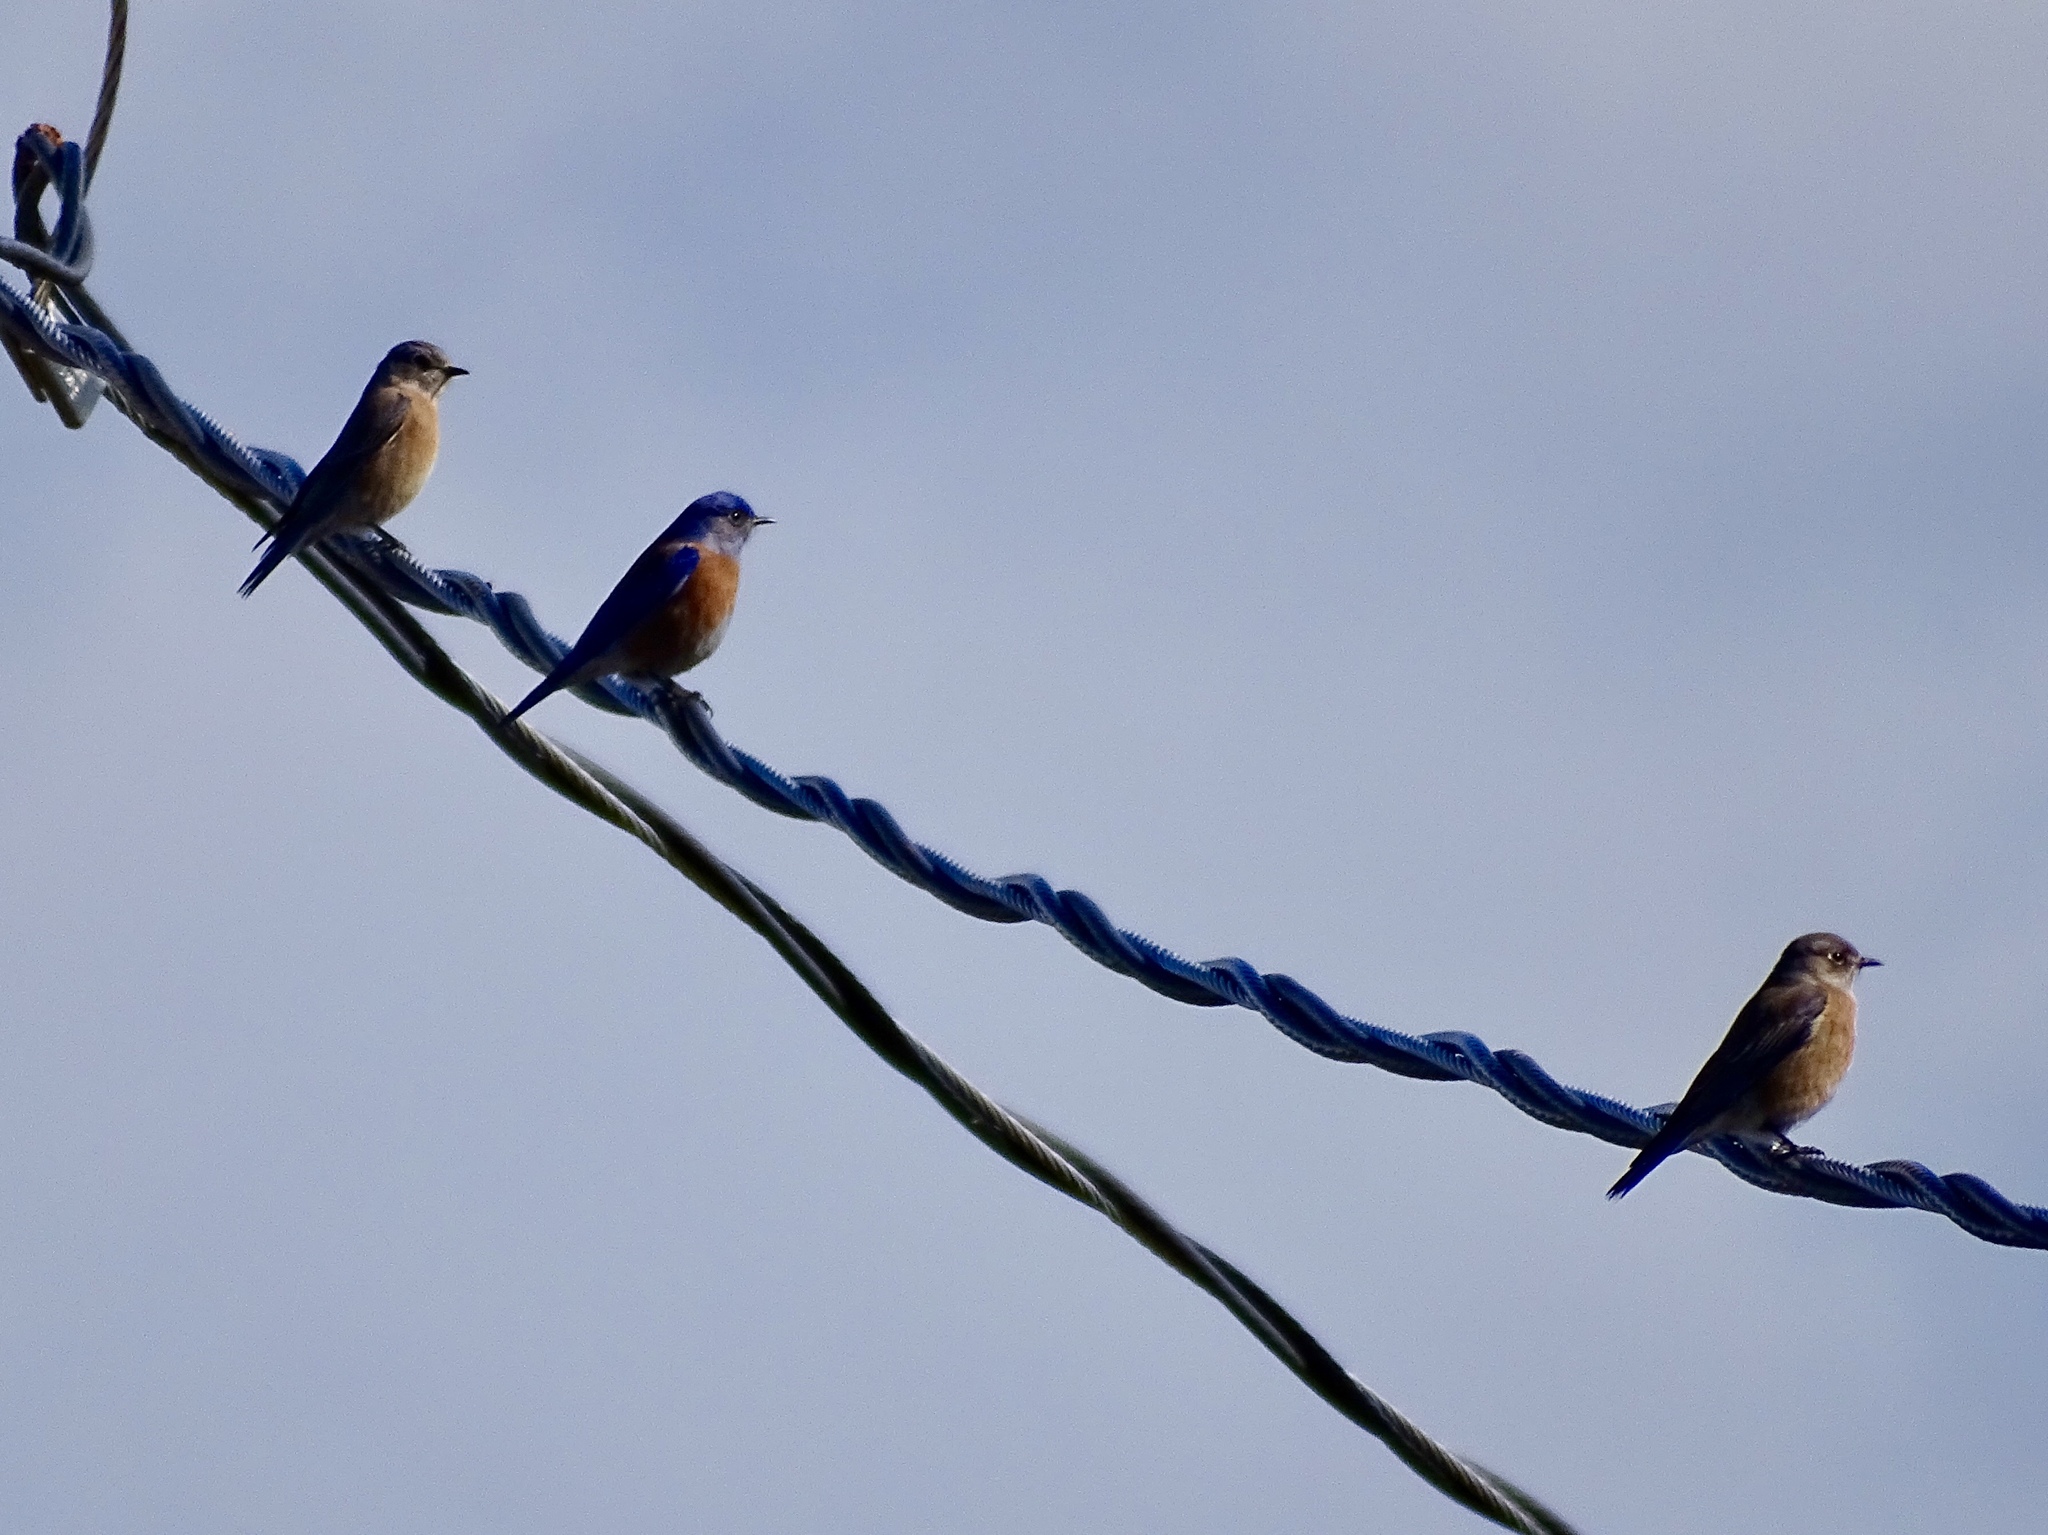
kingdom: Animalia
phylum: Chordata
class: Aves
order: Passeriformes
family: Turdidae
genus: Sialia
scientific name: Sialia mexicana
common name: Western bluebird
